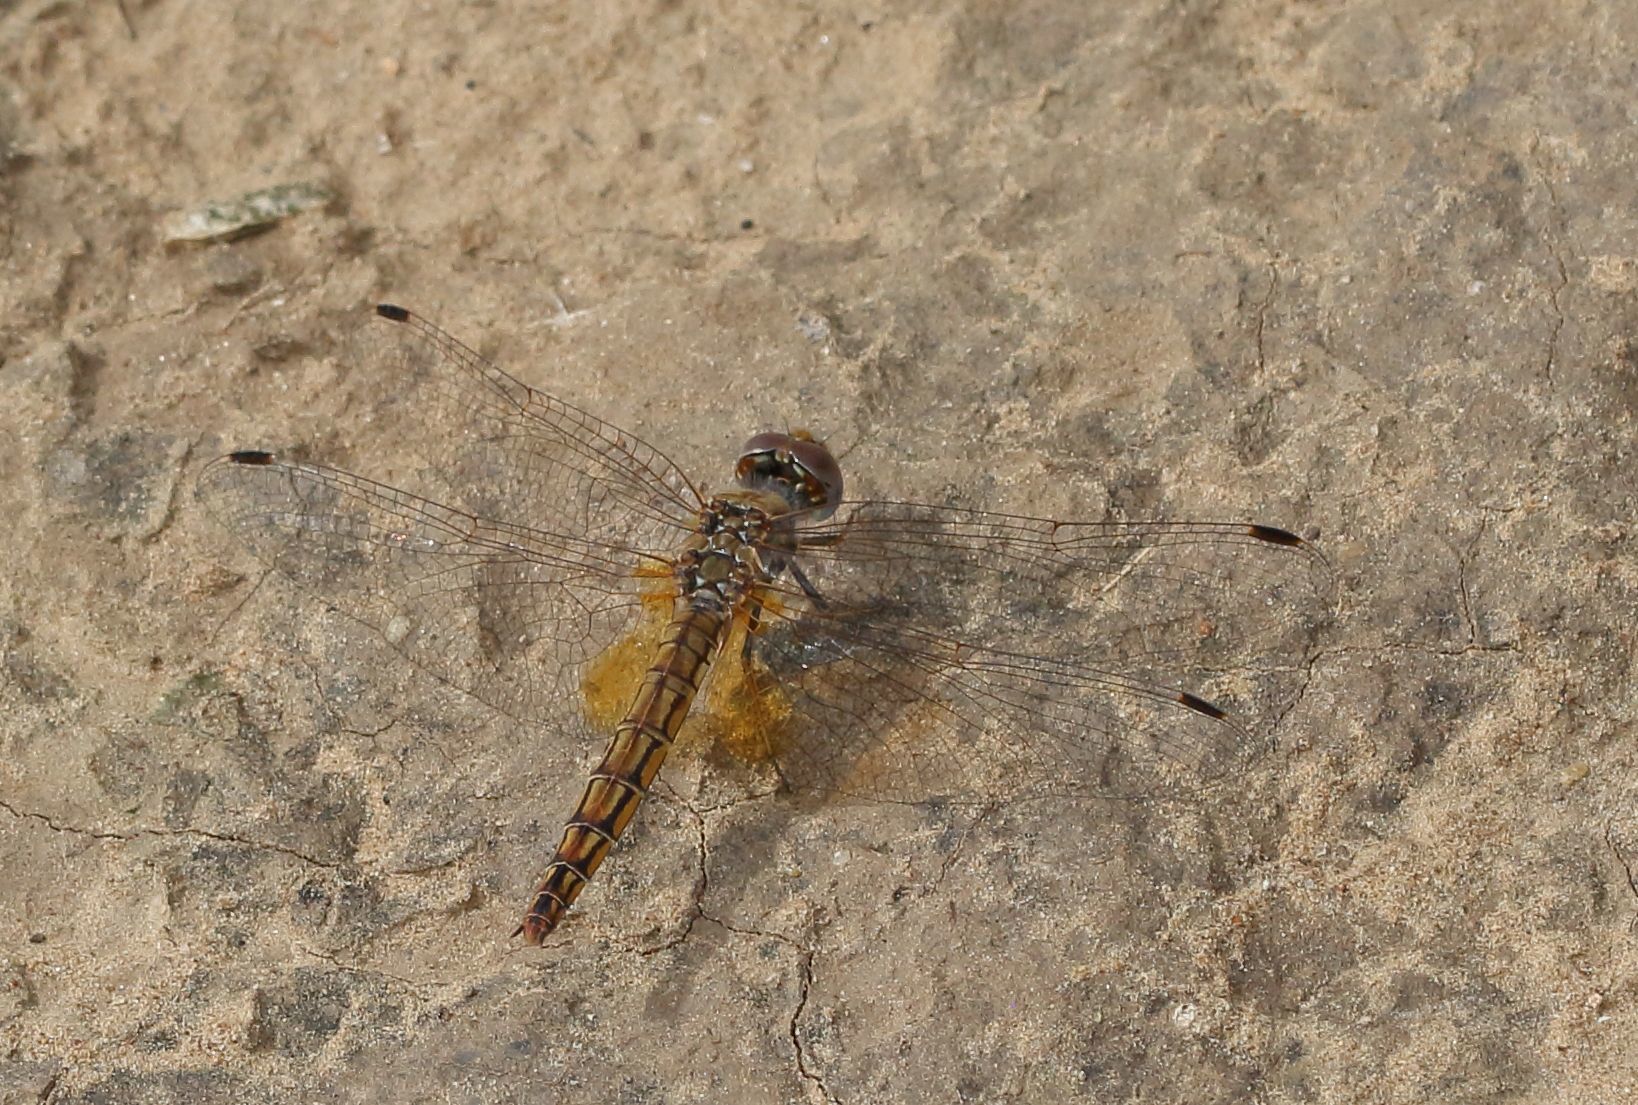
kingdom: Animalia
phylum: Arthropoda
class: Insecta
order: Odonata
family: Libellulidae
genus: Trithemis
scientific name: Trithemis kirbyi
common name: Kirby's dropwing
